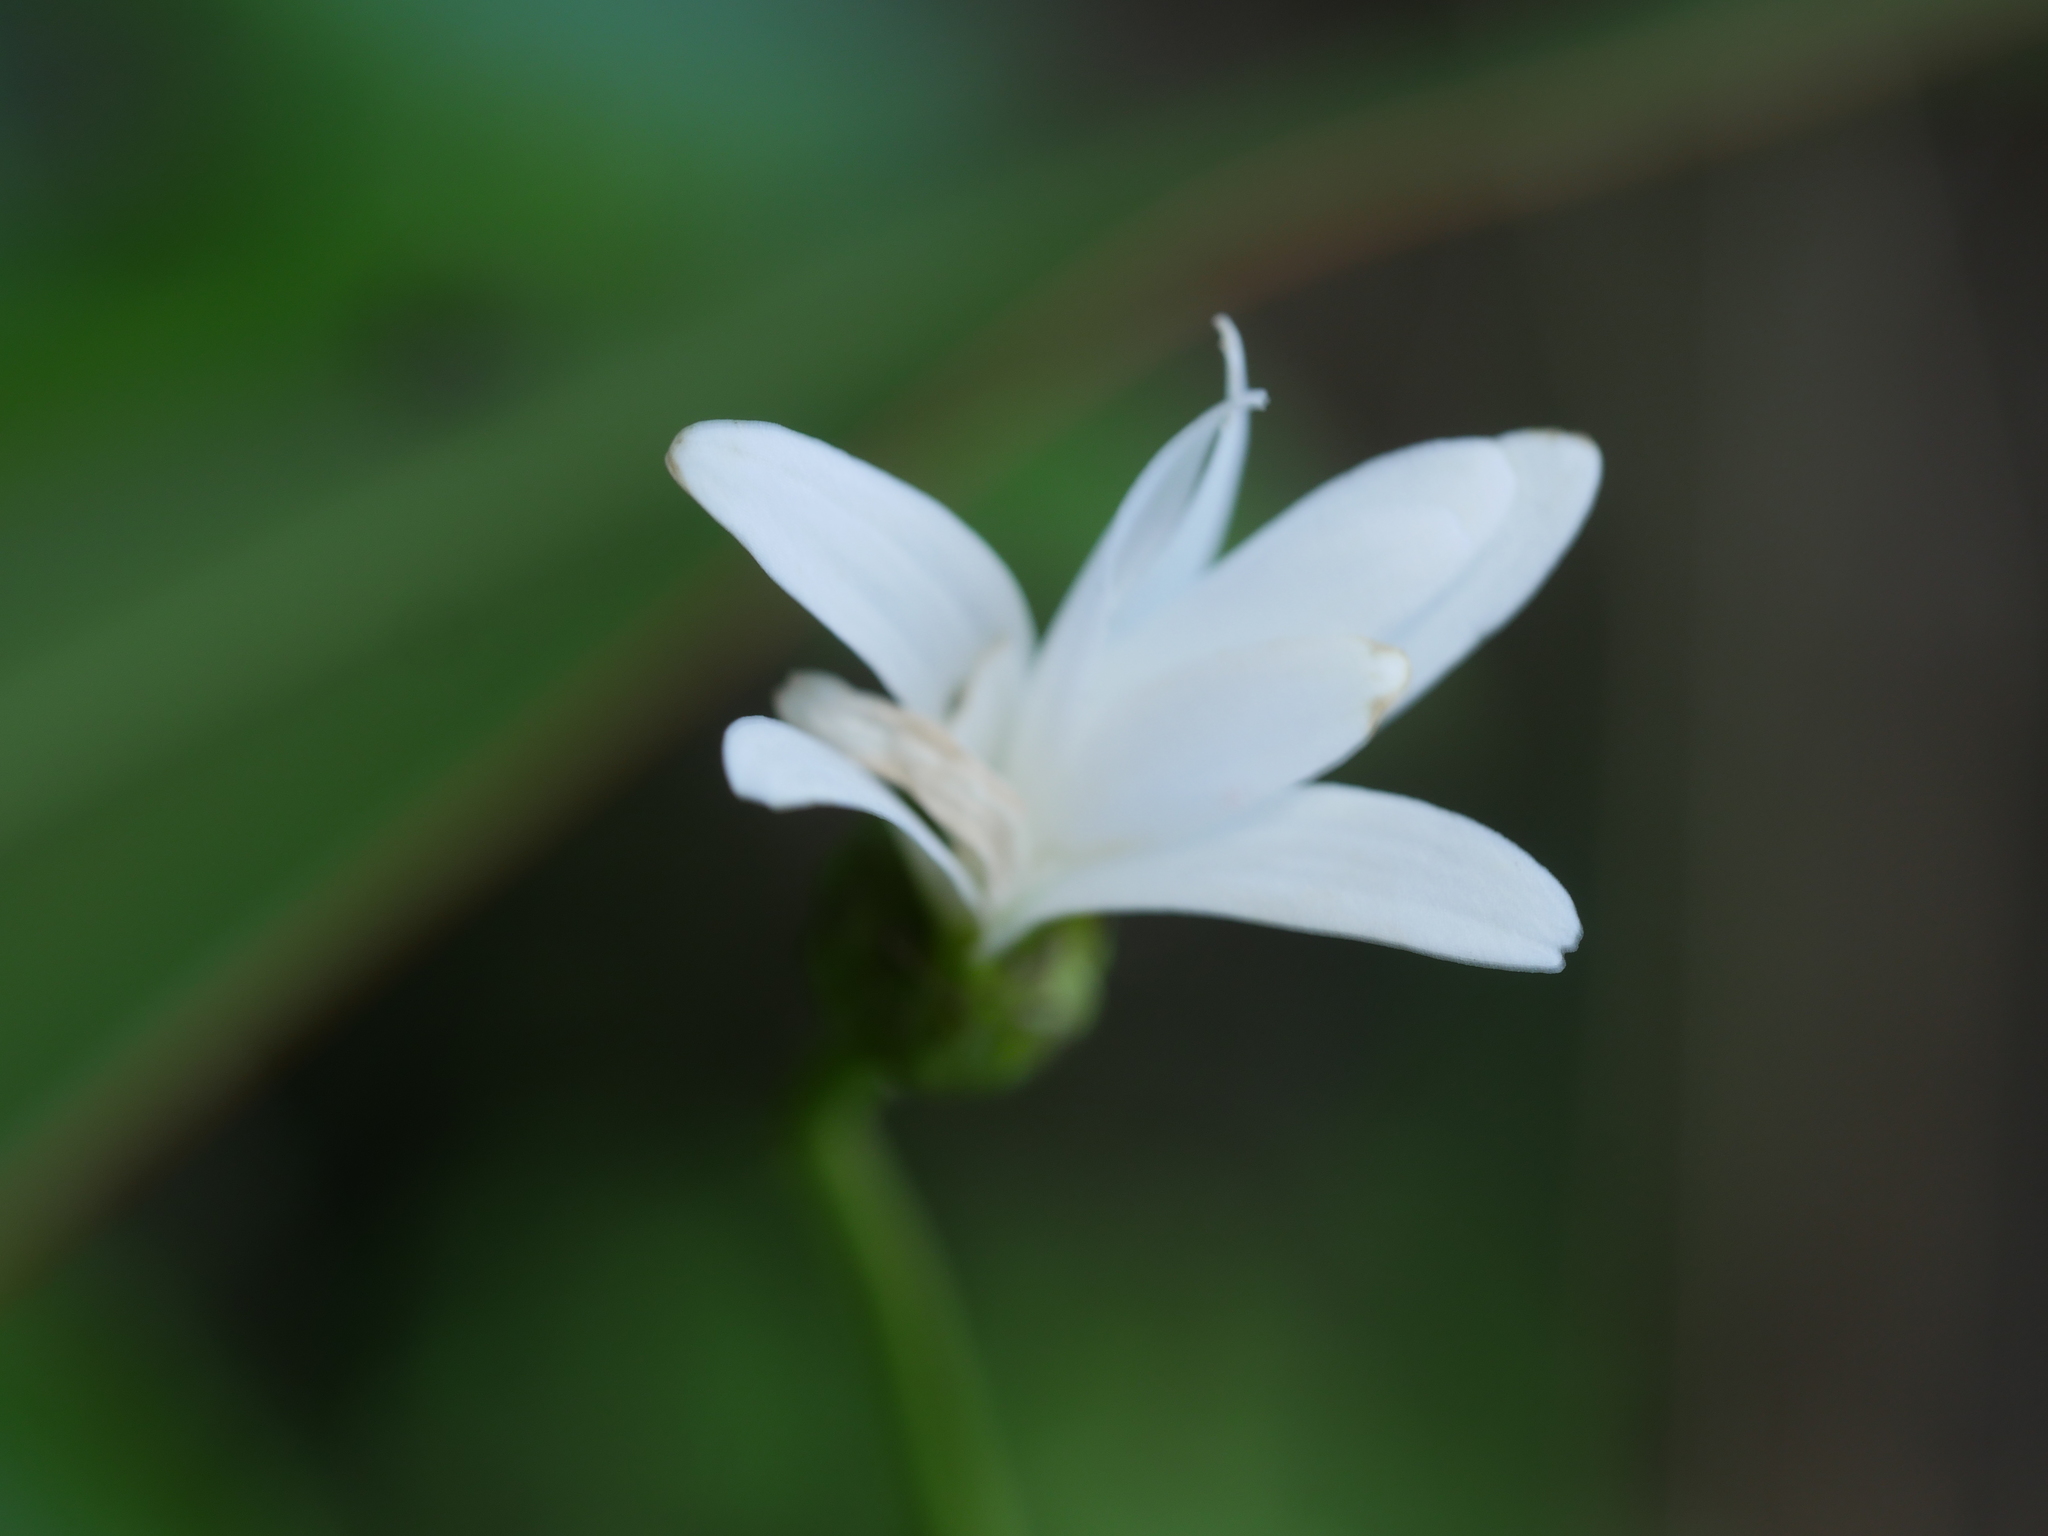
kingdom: Plantae
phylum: Tracheophyta
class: Magnoliopsida
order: Asterales
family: Asteraceae
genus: Leucanthemum
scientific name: Leucanthemum vulgare
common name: Oxeye daisy
